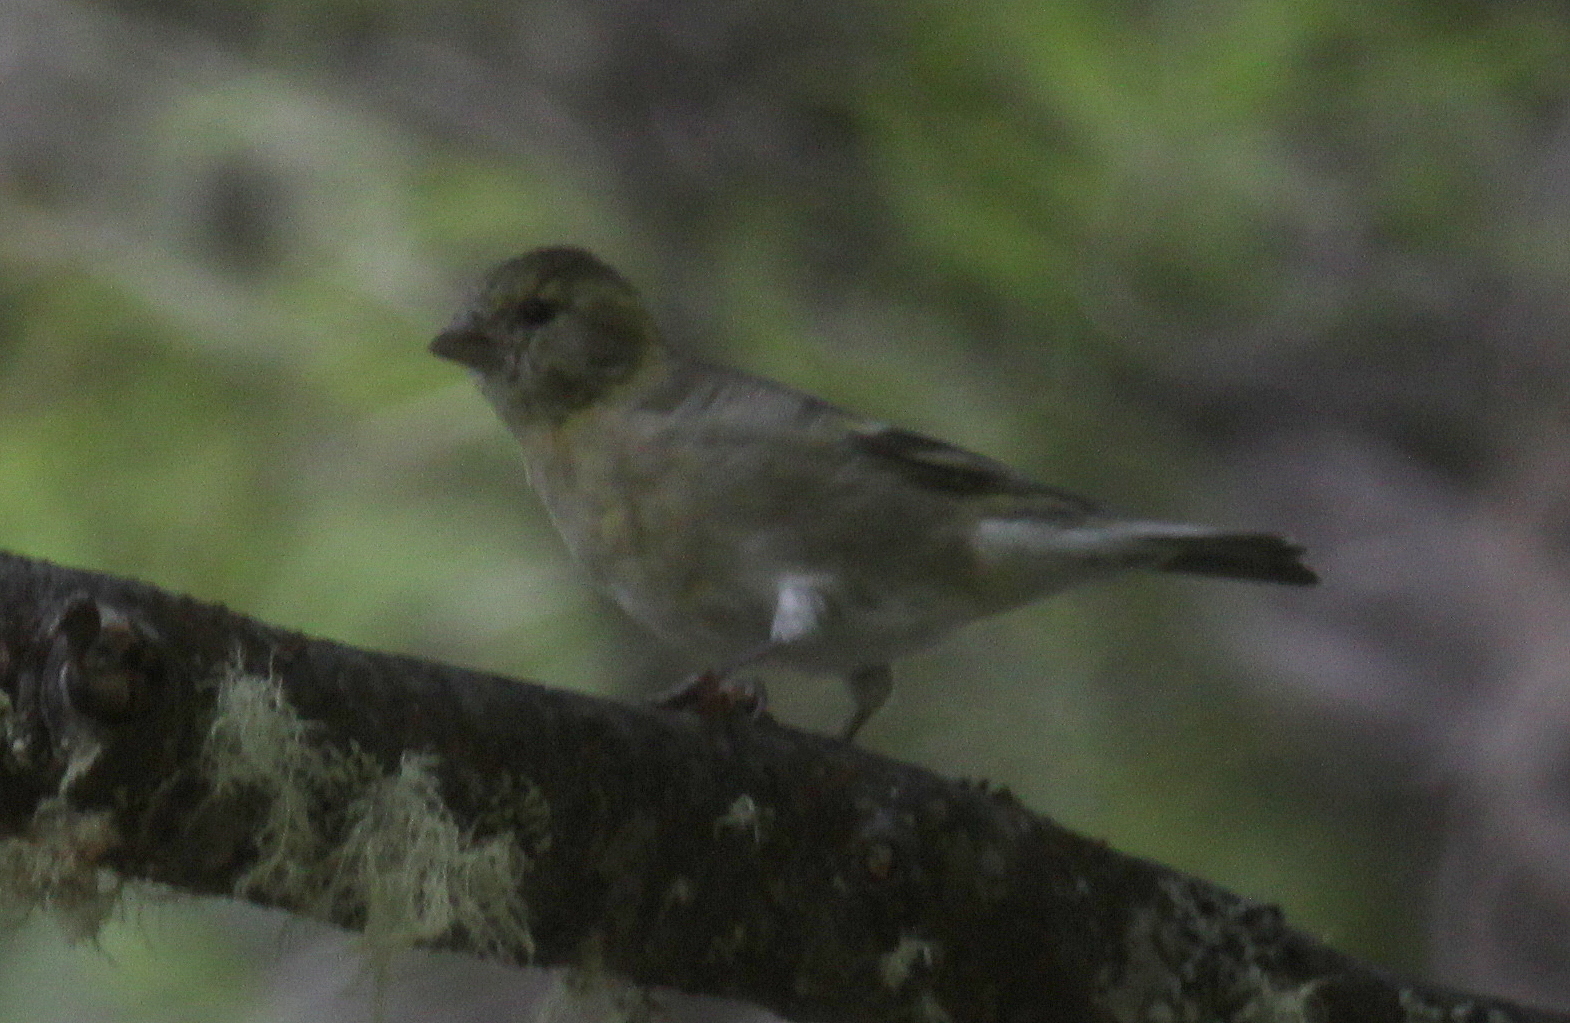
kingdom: Animalia
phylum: Chordata
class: Aves
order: Passeriformes
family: Fringillidae
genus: Spinus
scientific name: Spinus barbatus
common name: Black-chinned siskin
